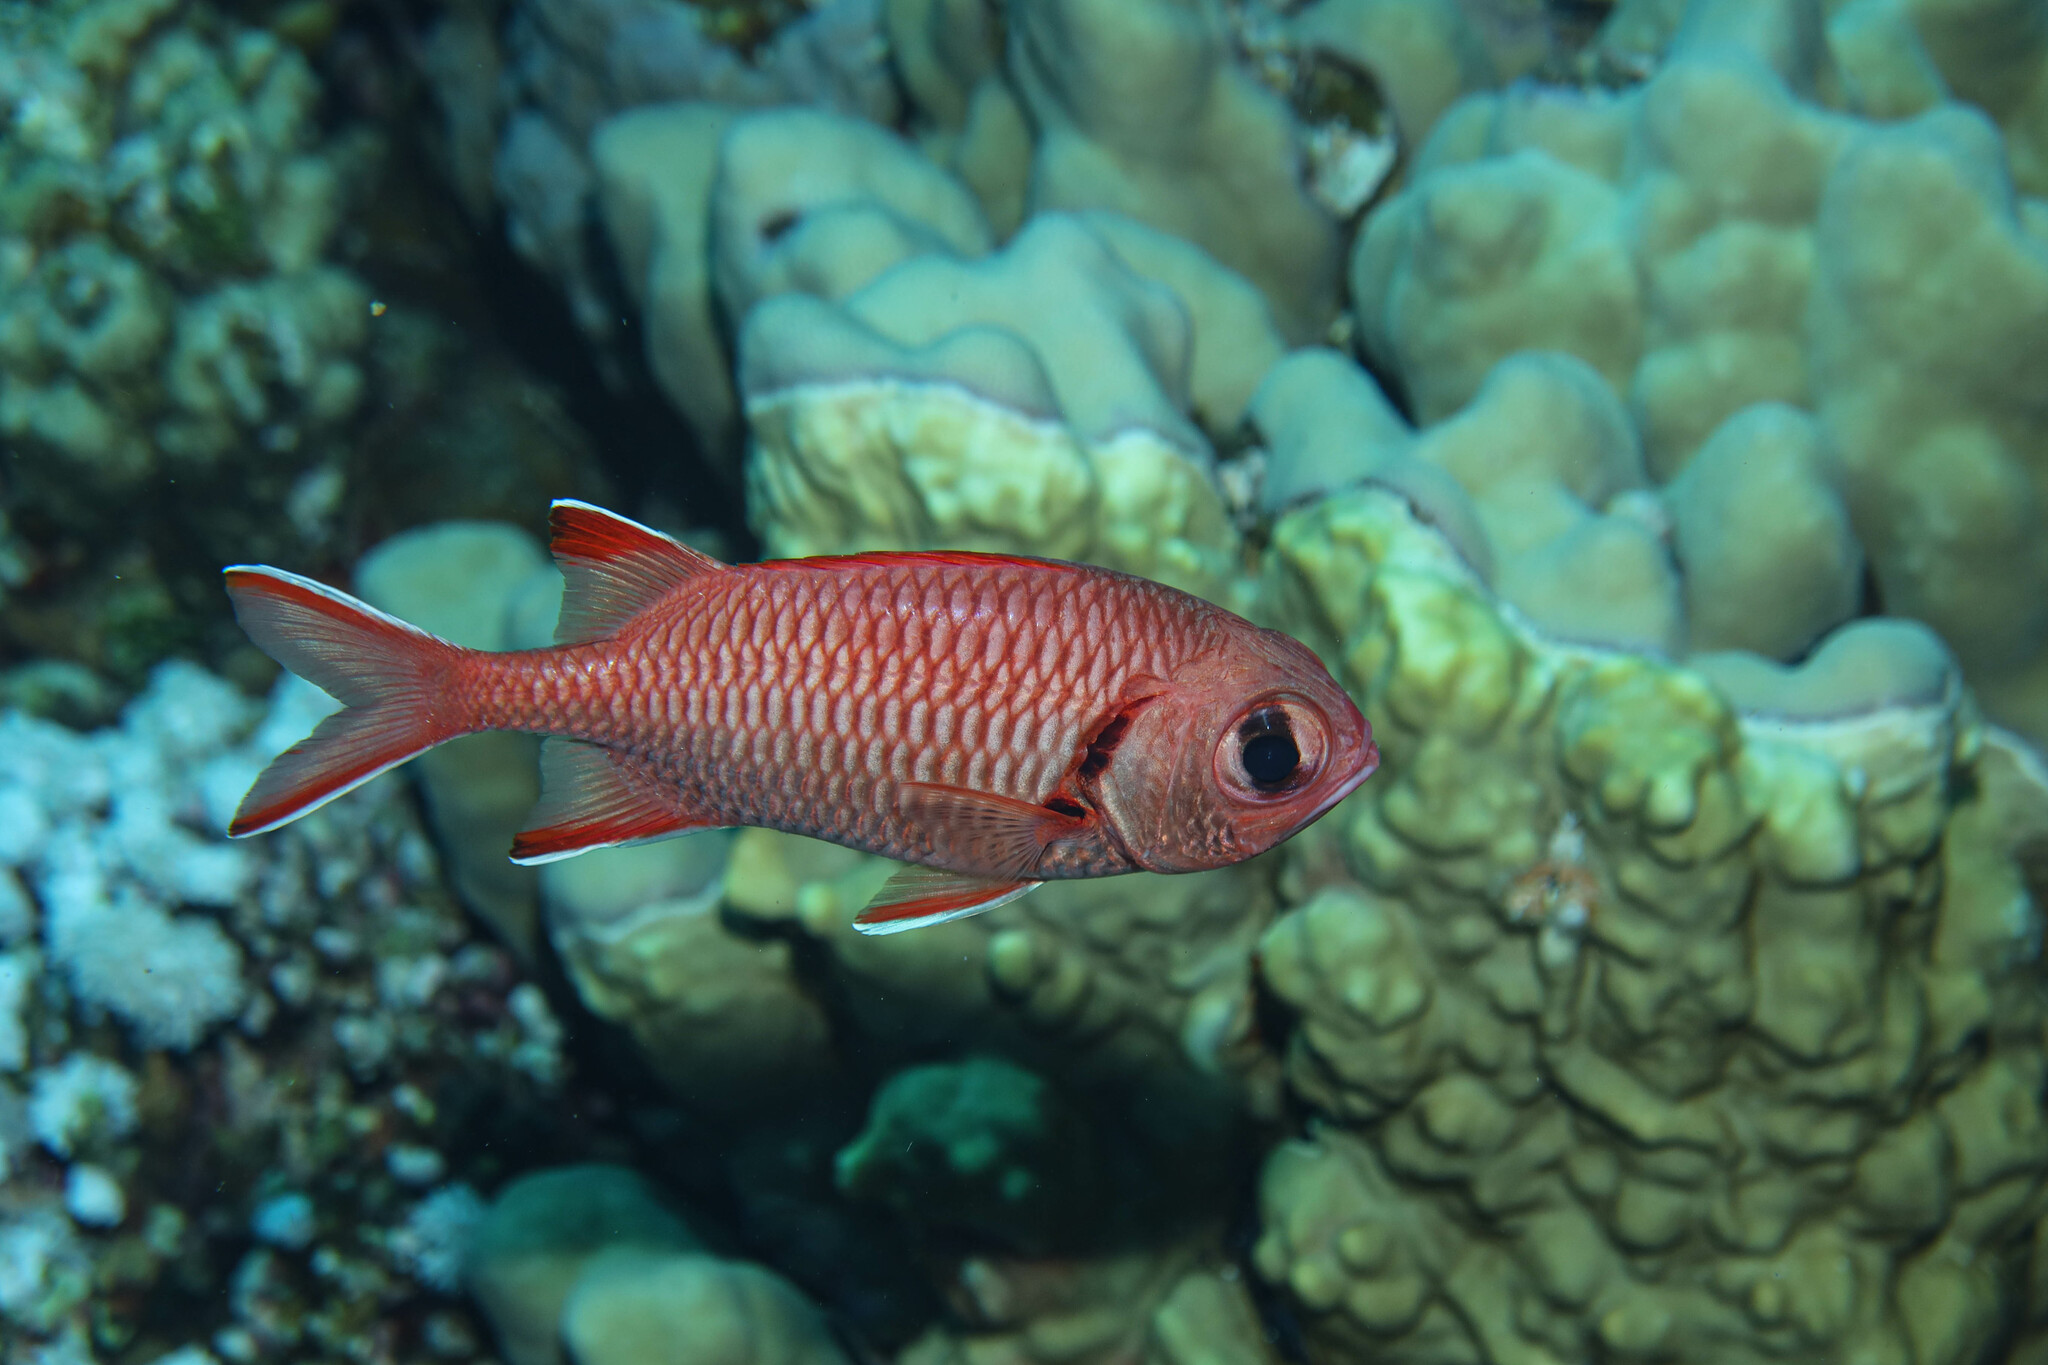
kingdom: Animalia
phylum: Chordata
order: Beryciformes
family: Holocentridae
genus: Myripristis
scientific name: Myripristis murdjan
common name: Big-eye soldierfish
